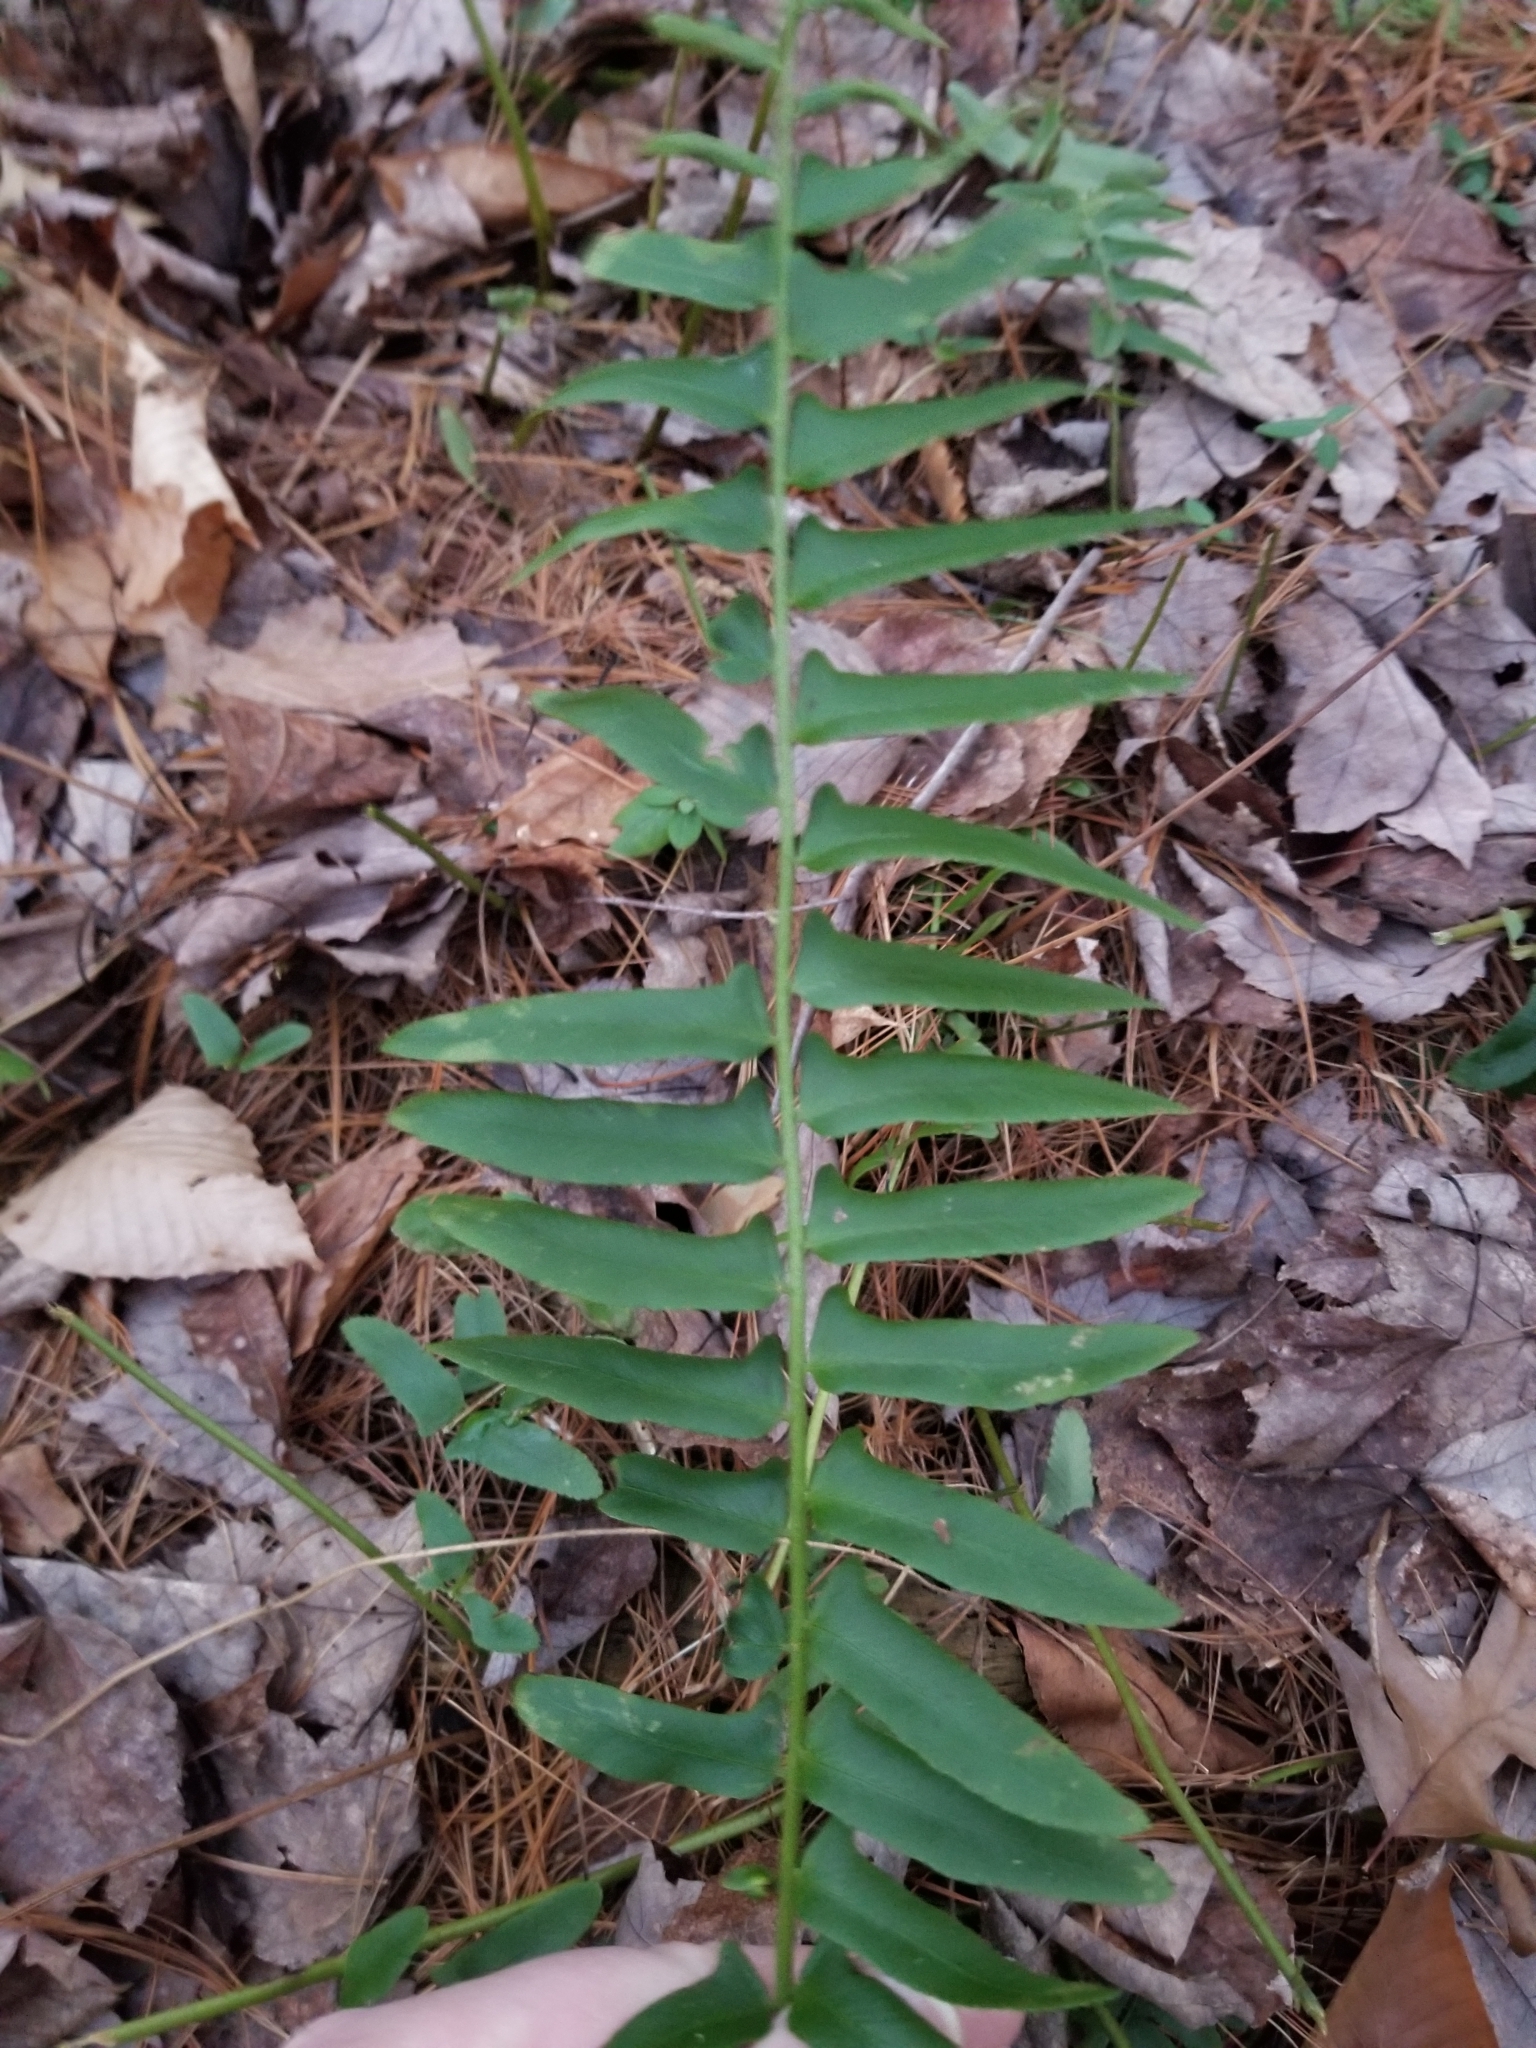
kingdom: Plantae
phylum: Tracheophyta
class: Polypodiopsida
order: Polypodiales
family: Dryopteridaceae
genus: Polystichum
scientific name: Polystichum acrostichoides
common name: Christmas fern
